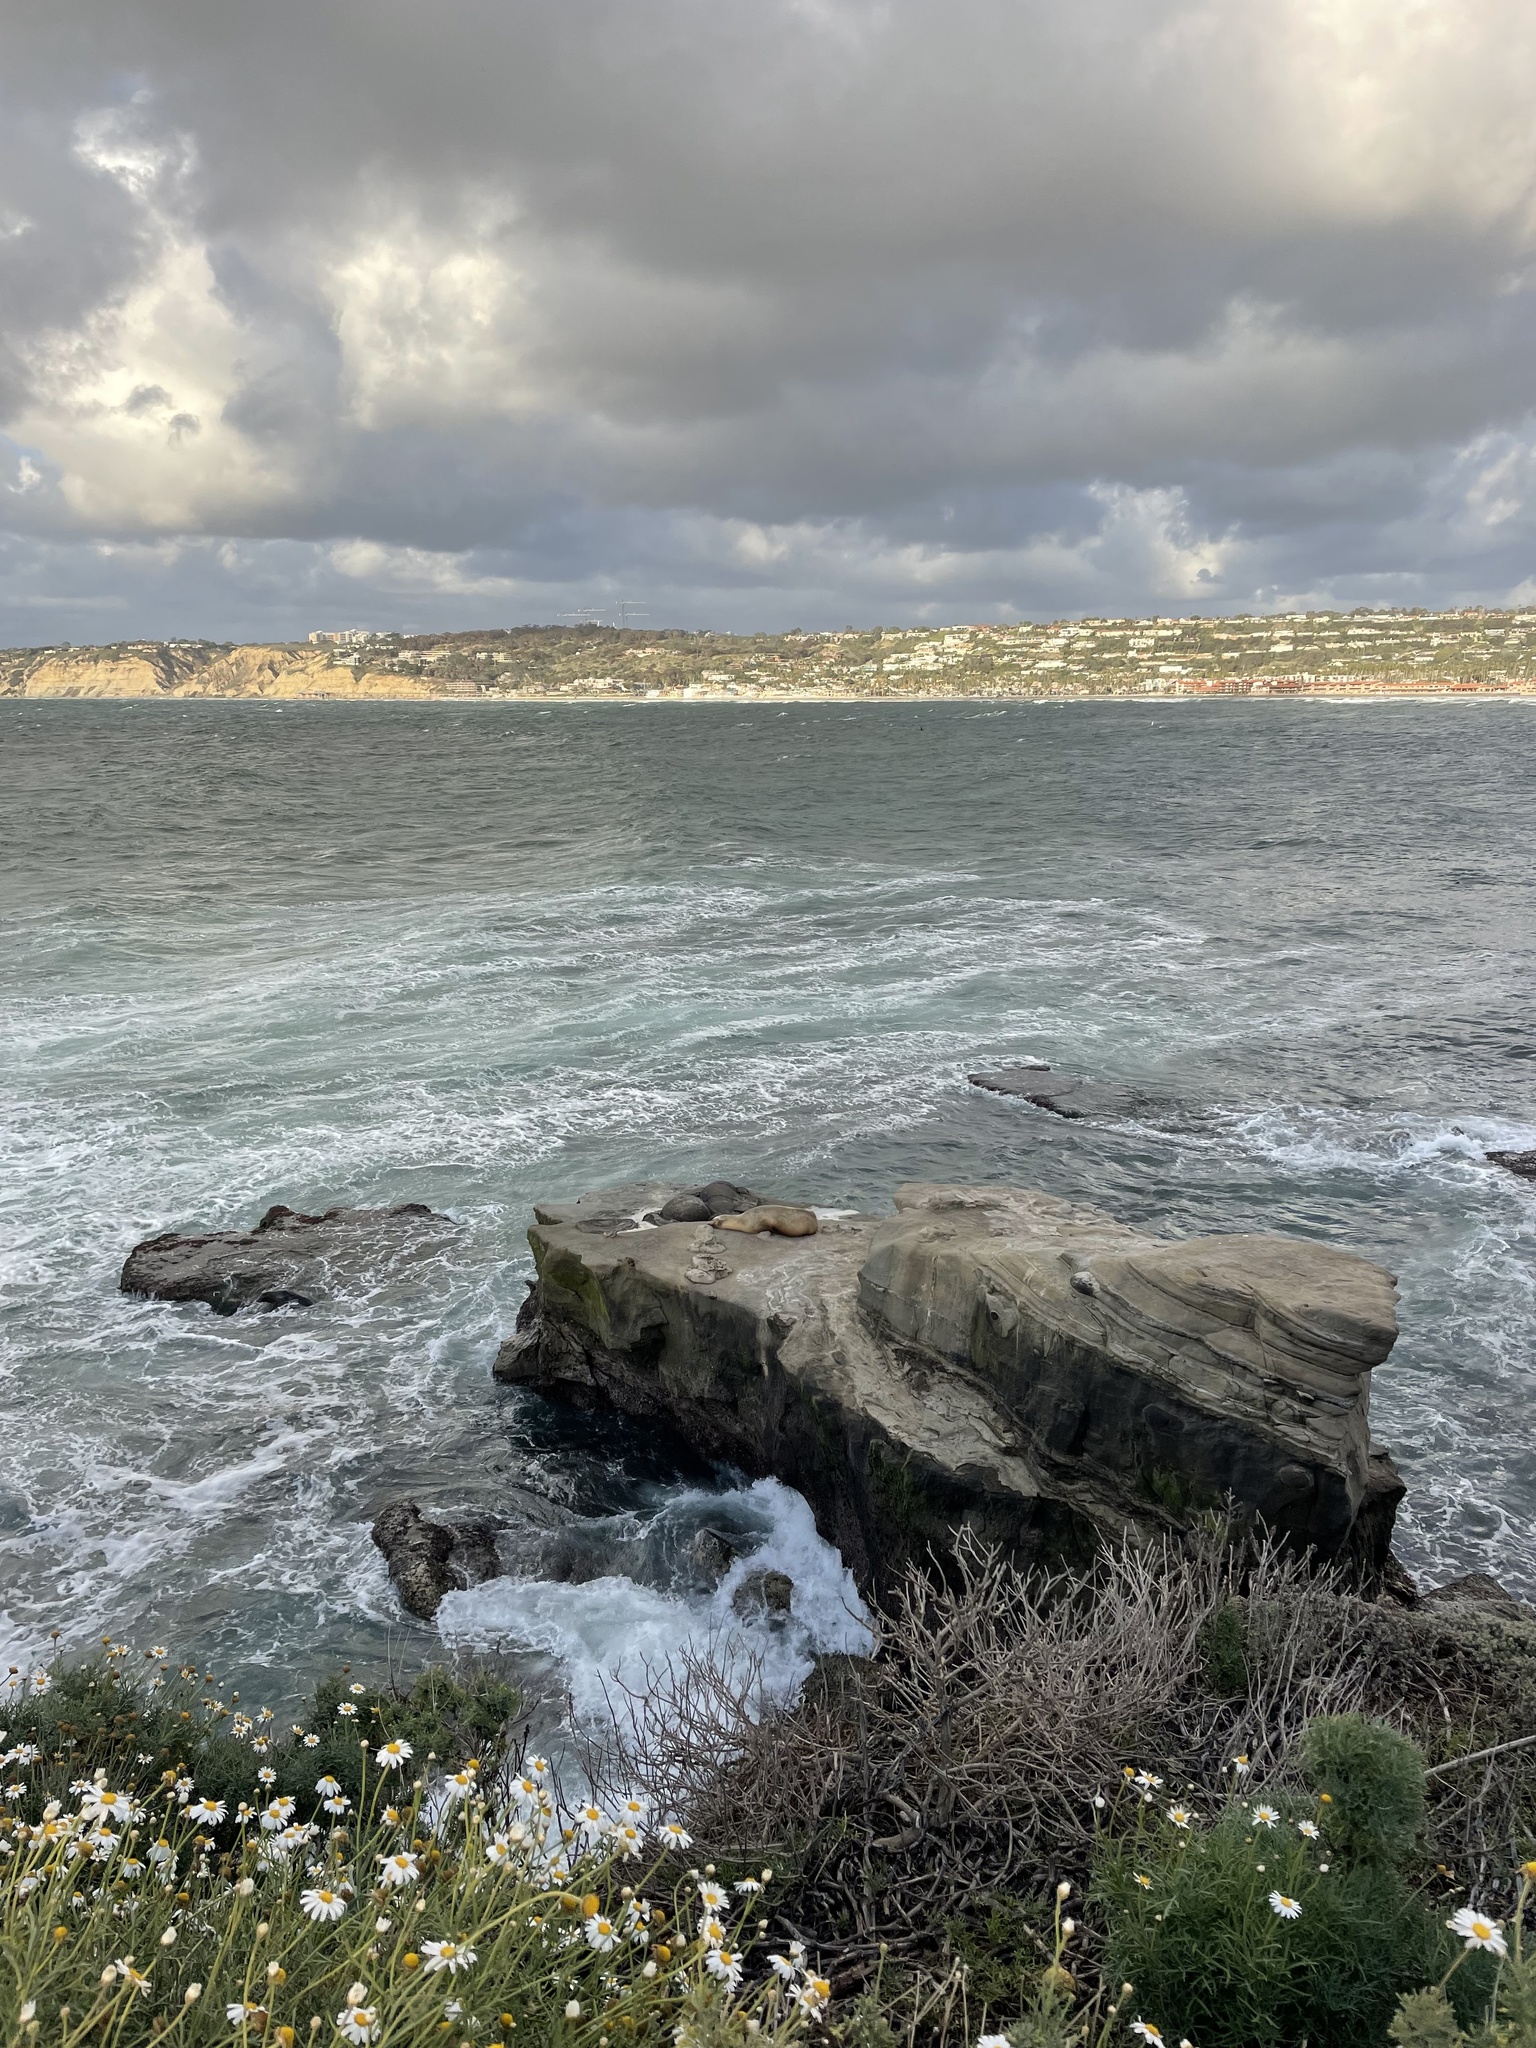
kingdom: Animalia
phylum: Chordata
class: Mammalia
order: Carnivora
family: Otariidae
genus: Zalophus
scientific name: Zalophus californianus
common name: California sea lion
